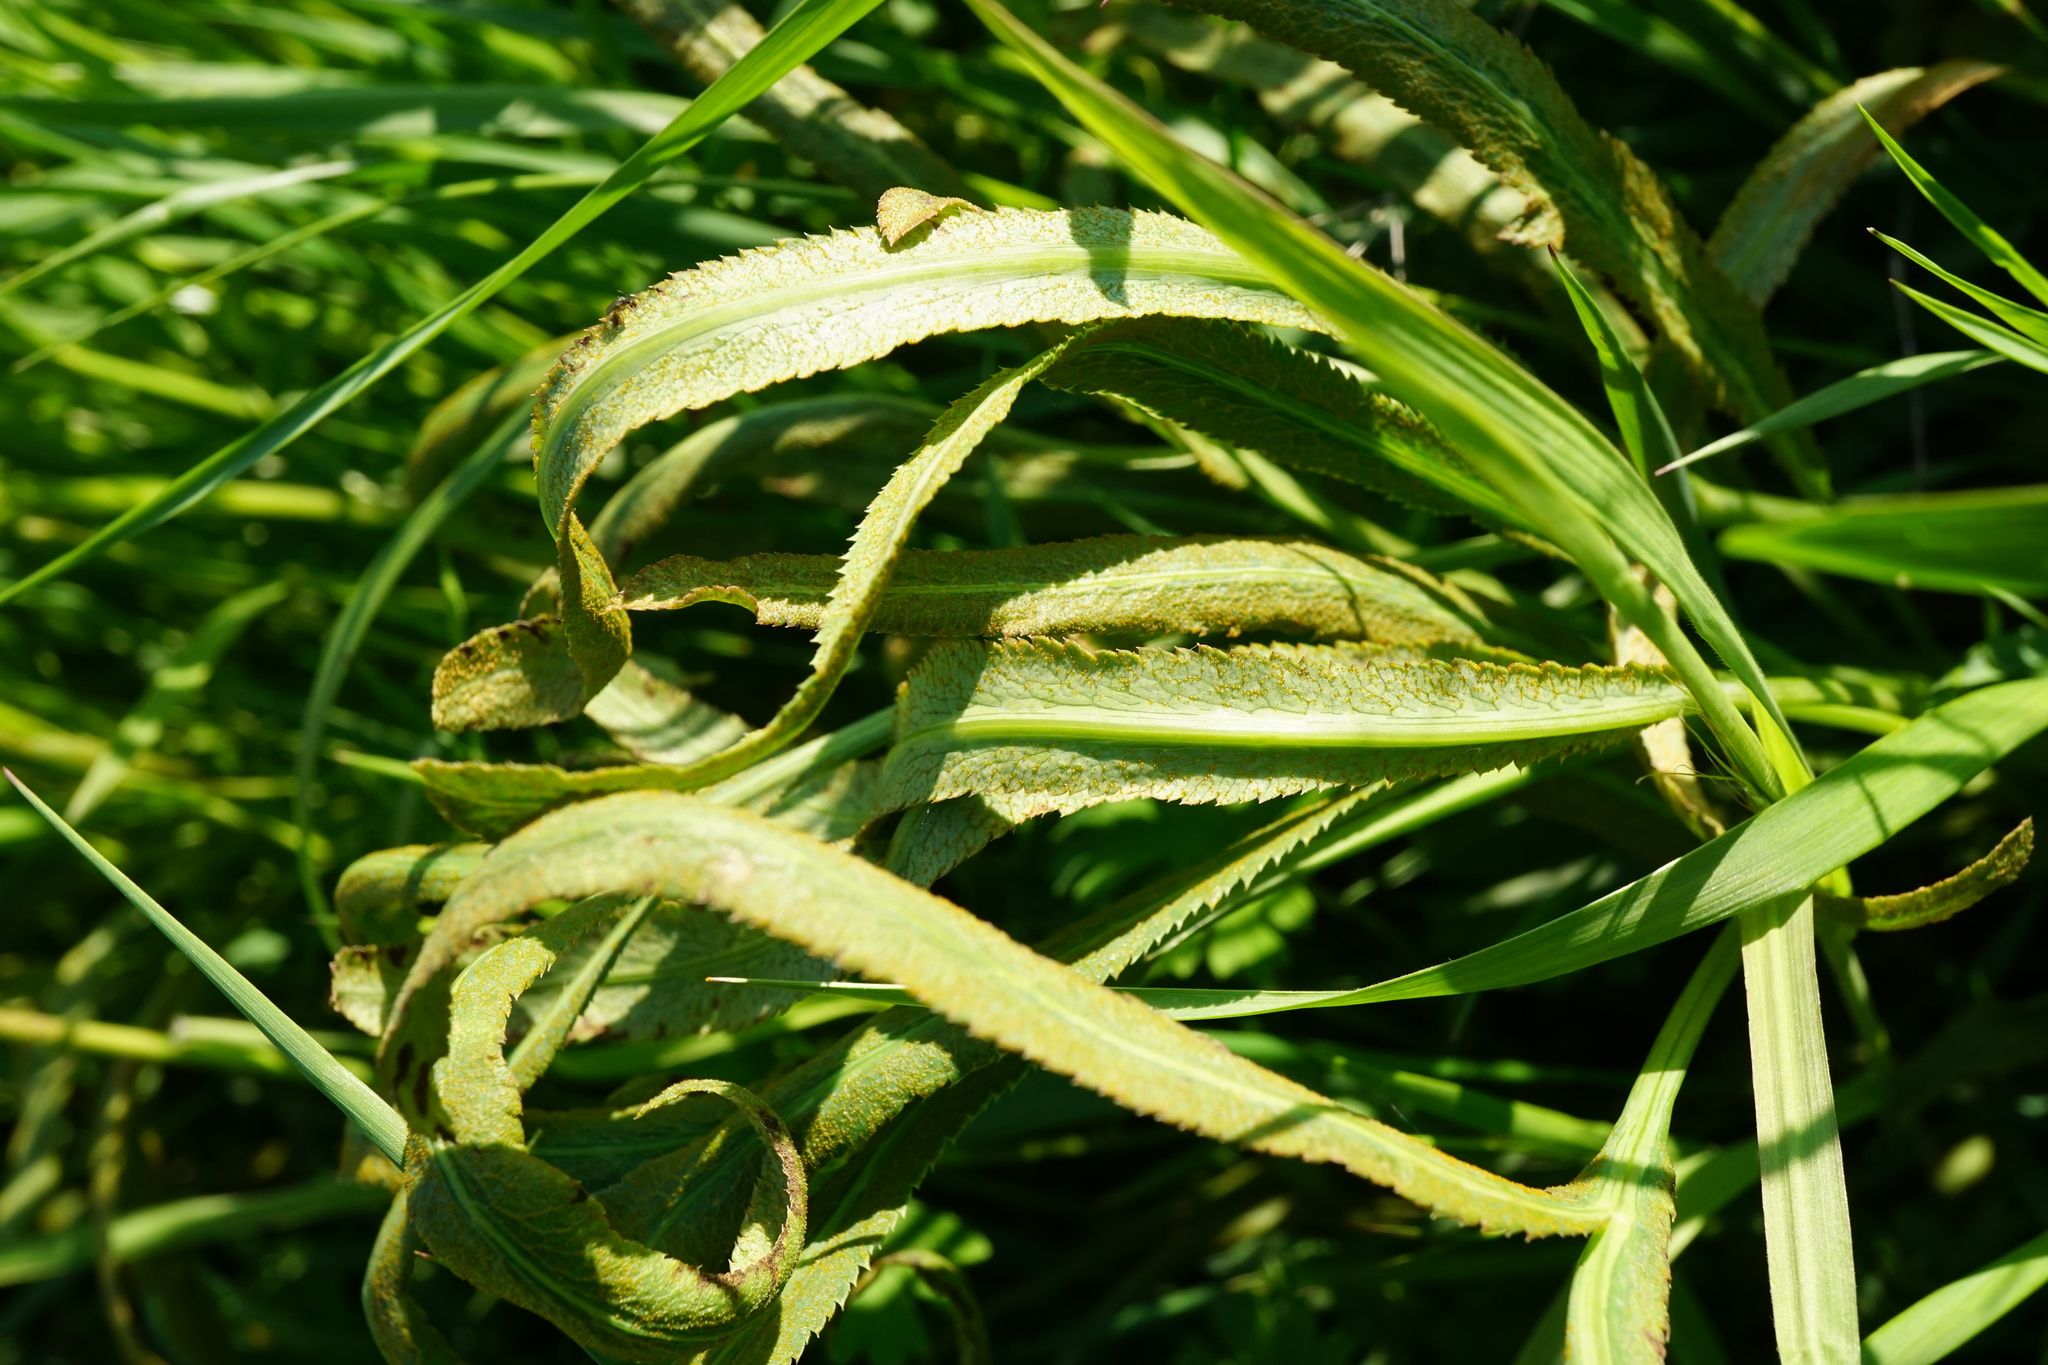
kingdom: Fungi
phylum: Basidiomycota
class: Pucciniomycetes
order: Pucciniales
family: Pucciniaceae
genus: Puccinia
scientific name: Puccinia sii-falcariae
